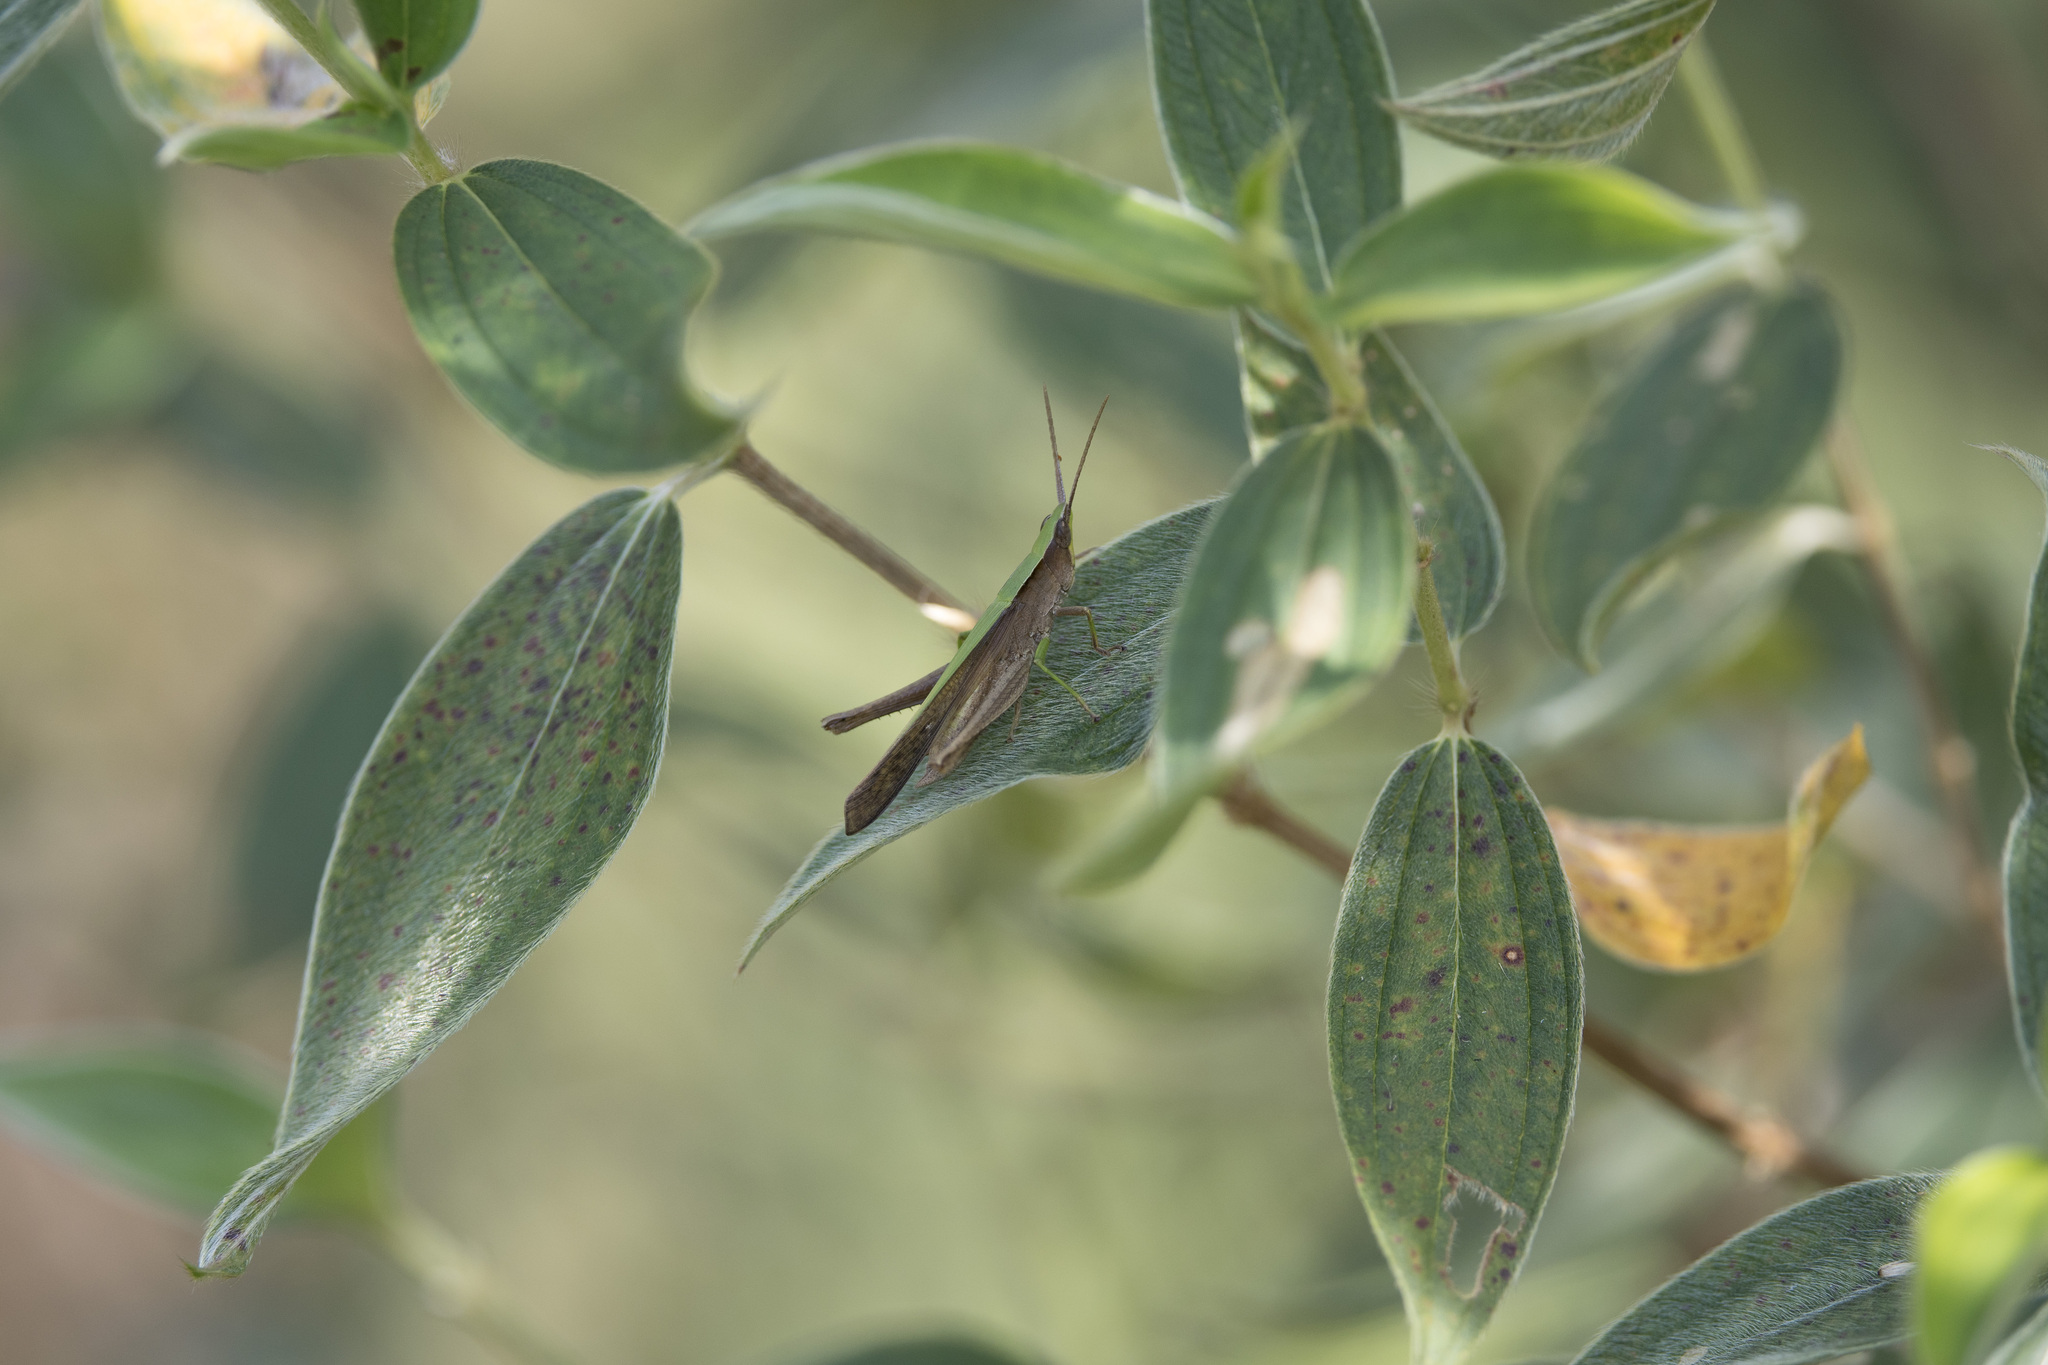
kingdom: Animalia
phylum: Arthropoda
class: Insecta
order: Orthoptera
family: Acrididae
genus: Metaleptea
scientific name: Metaleptea adspersa
